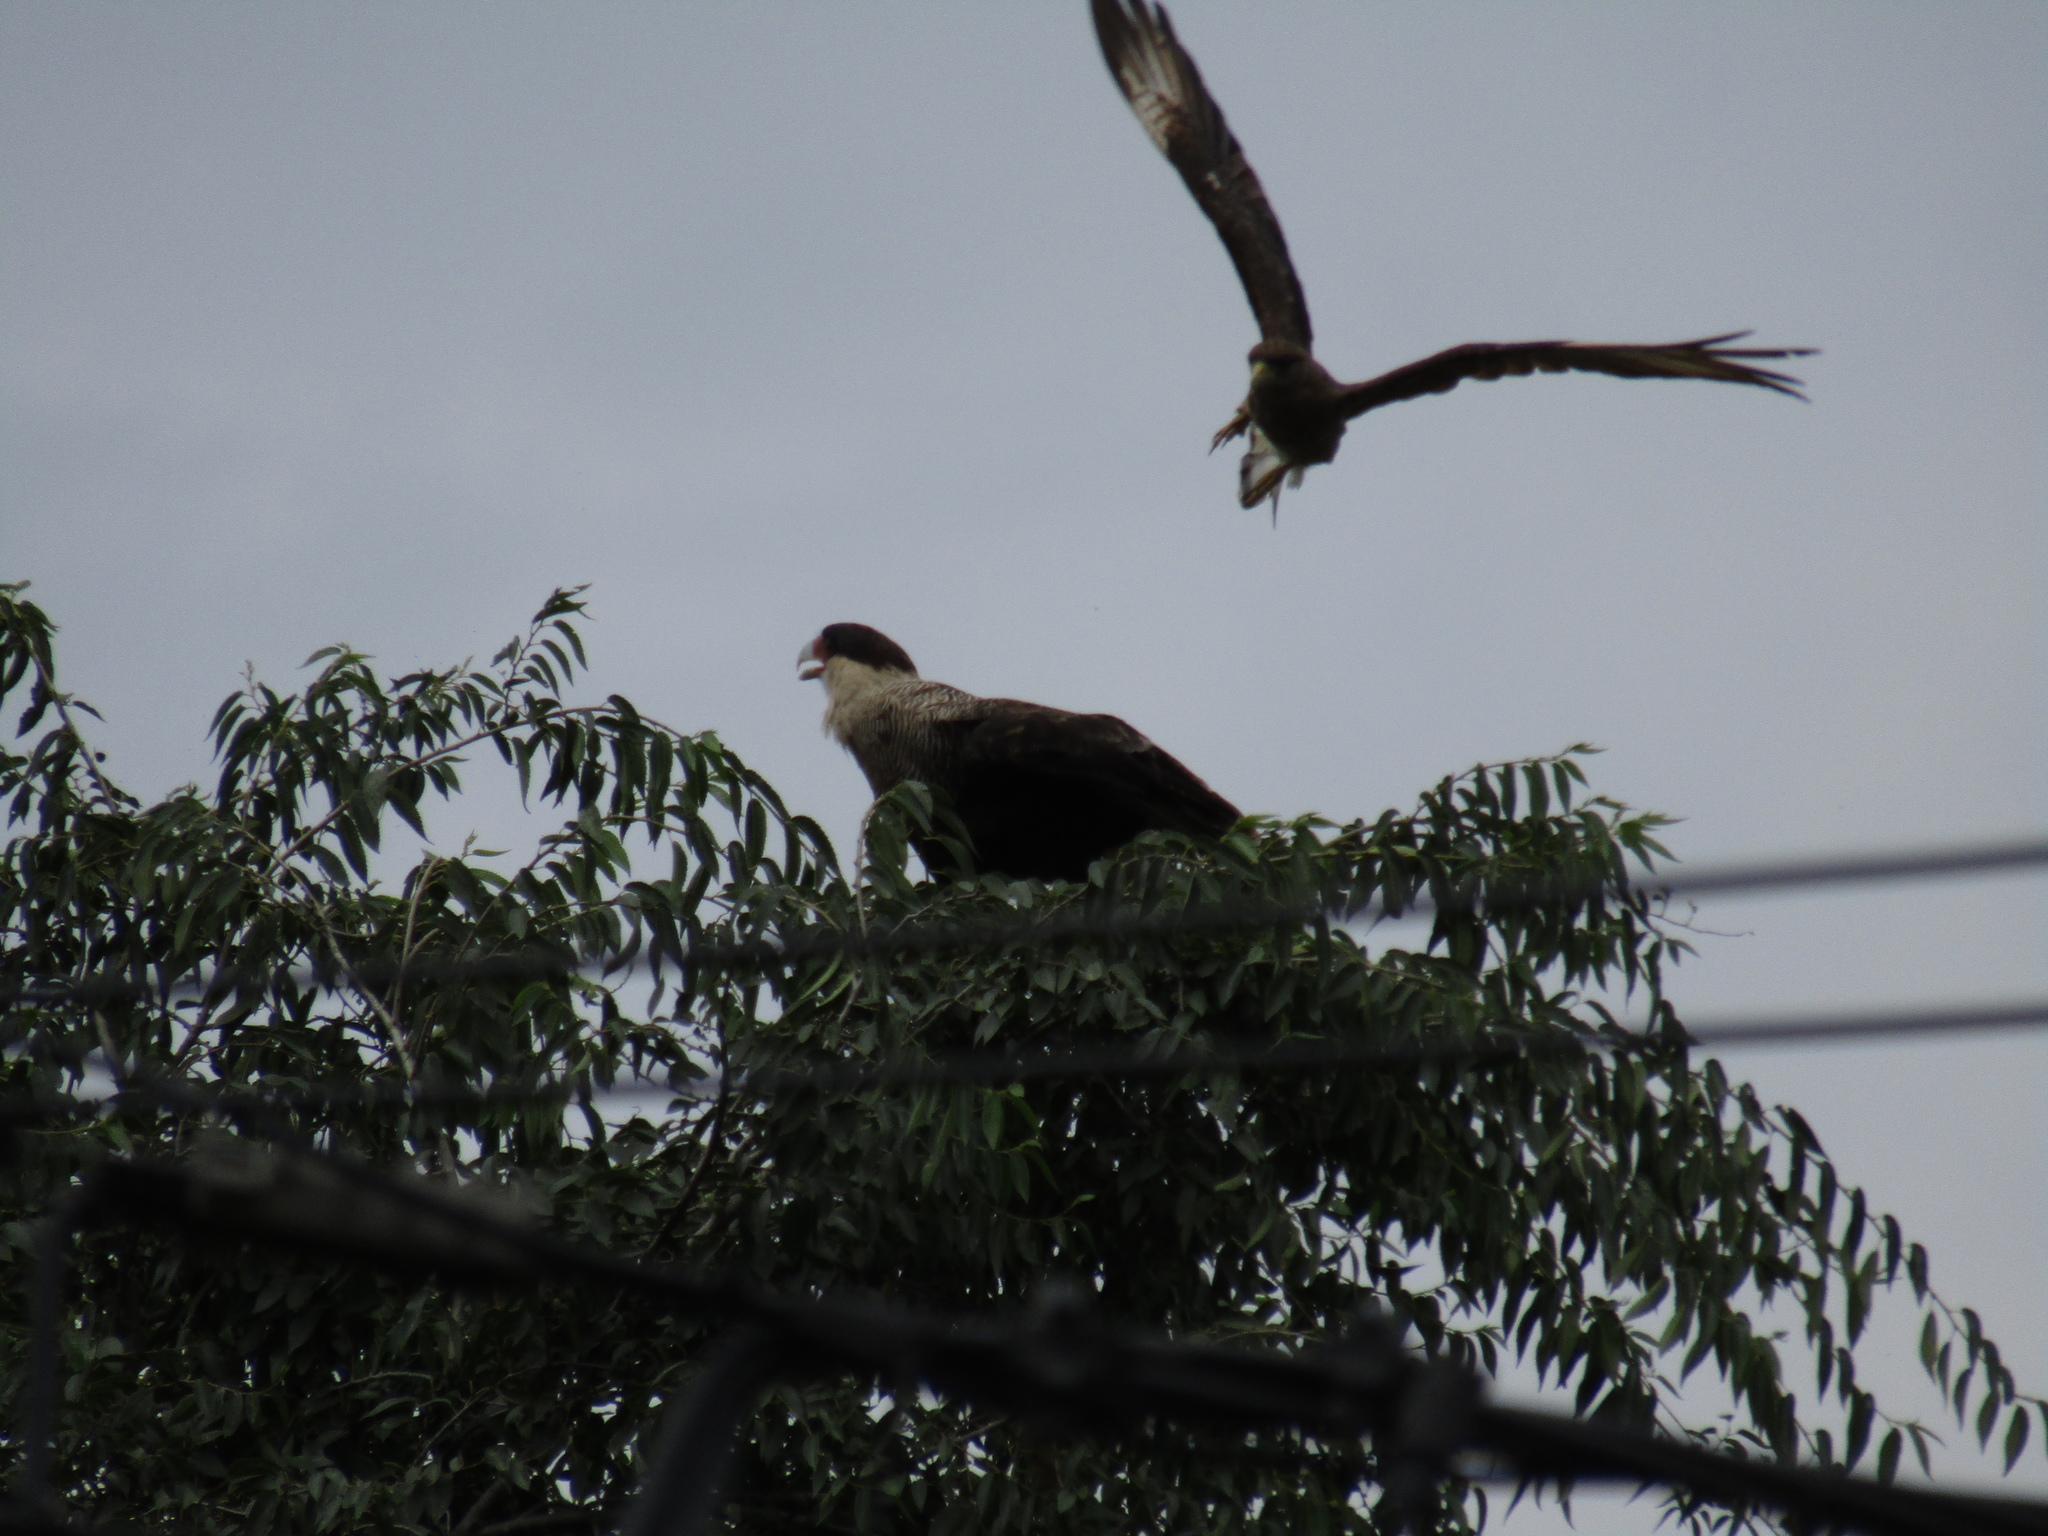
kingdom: Animalia
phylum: Chordata
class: Aves
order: Falconiformes
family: Falconidae
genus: Caracara
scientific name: Caracara plancus
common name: Southern caracara
